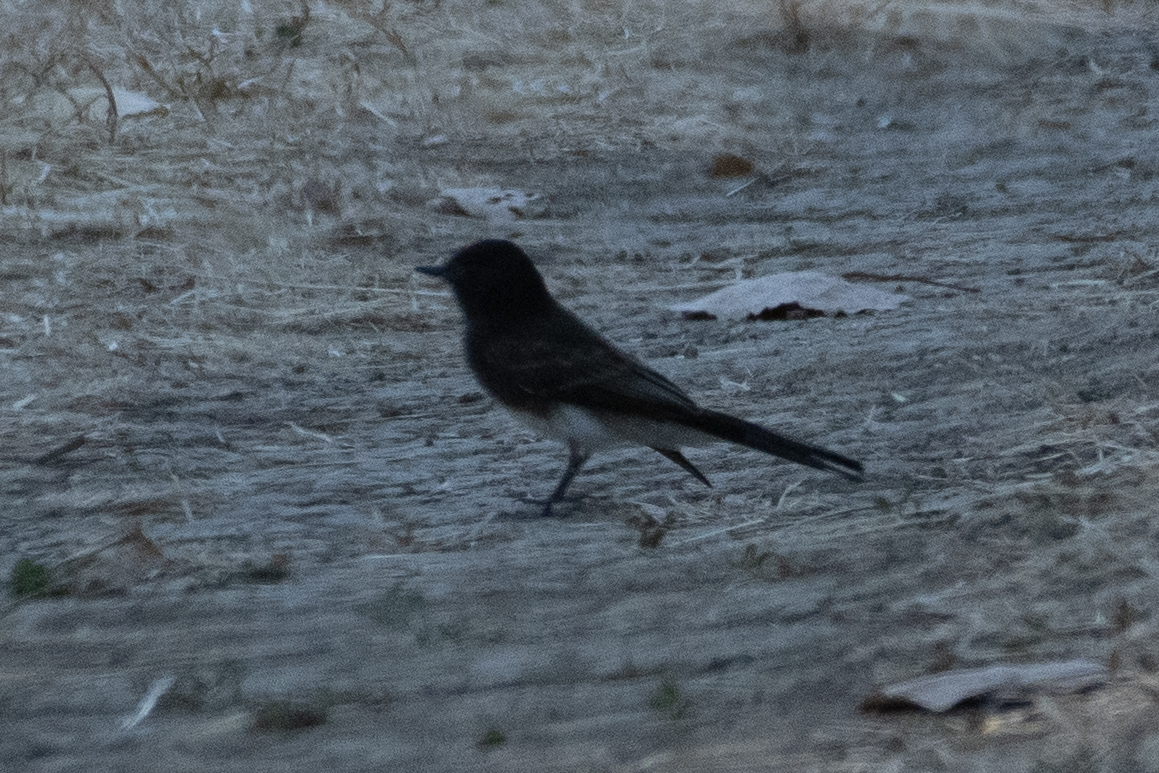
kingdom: Animalia
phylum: Chordata
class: Aves
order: Passeriformes
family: Tyrannidae
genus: Sayornis
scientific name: Sayornis nigricans
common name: Black phoebe
